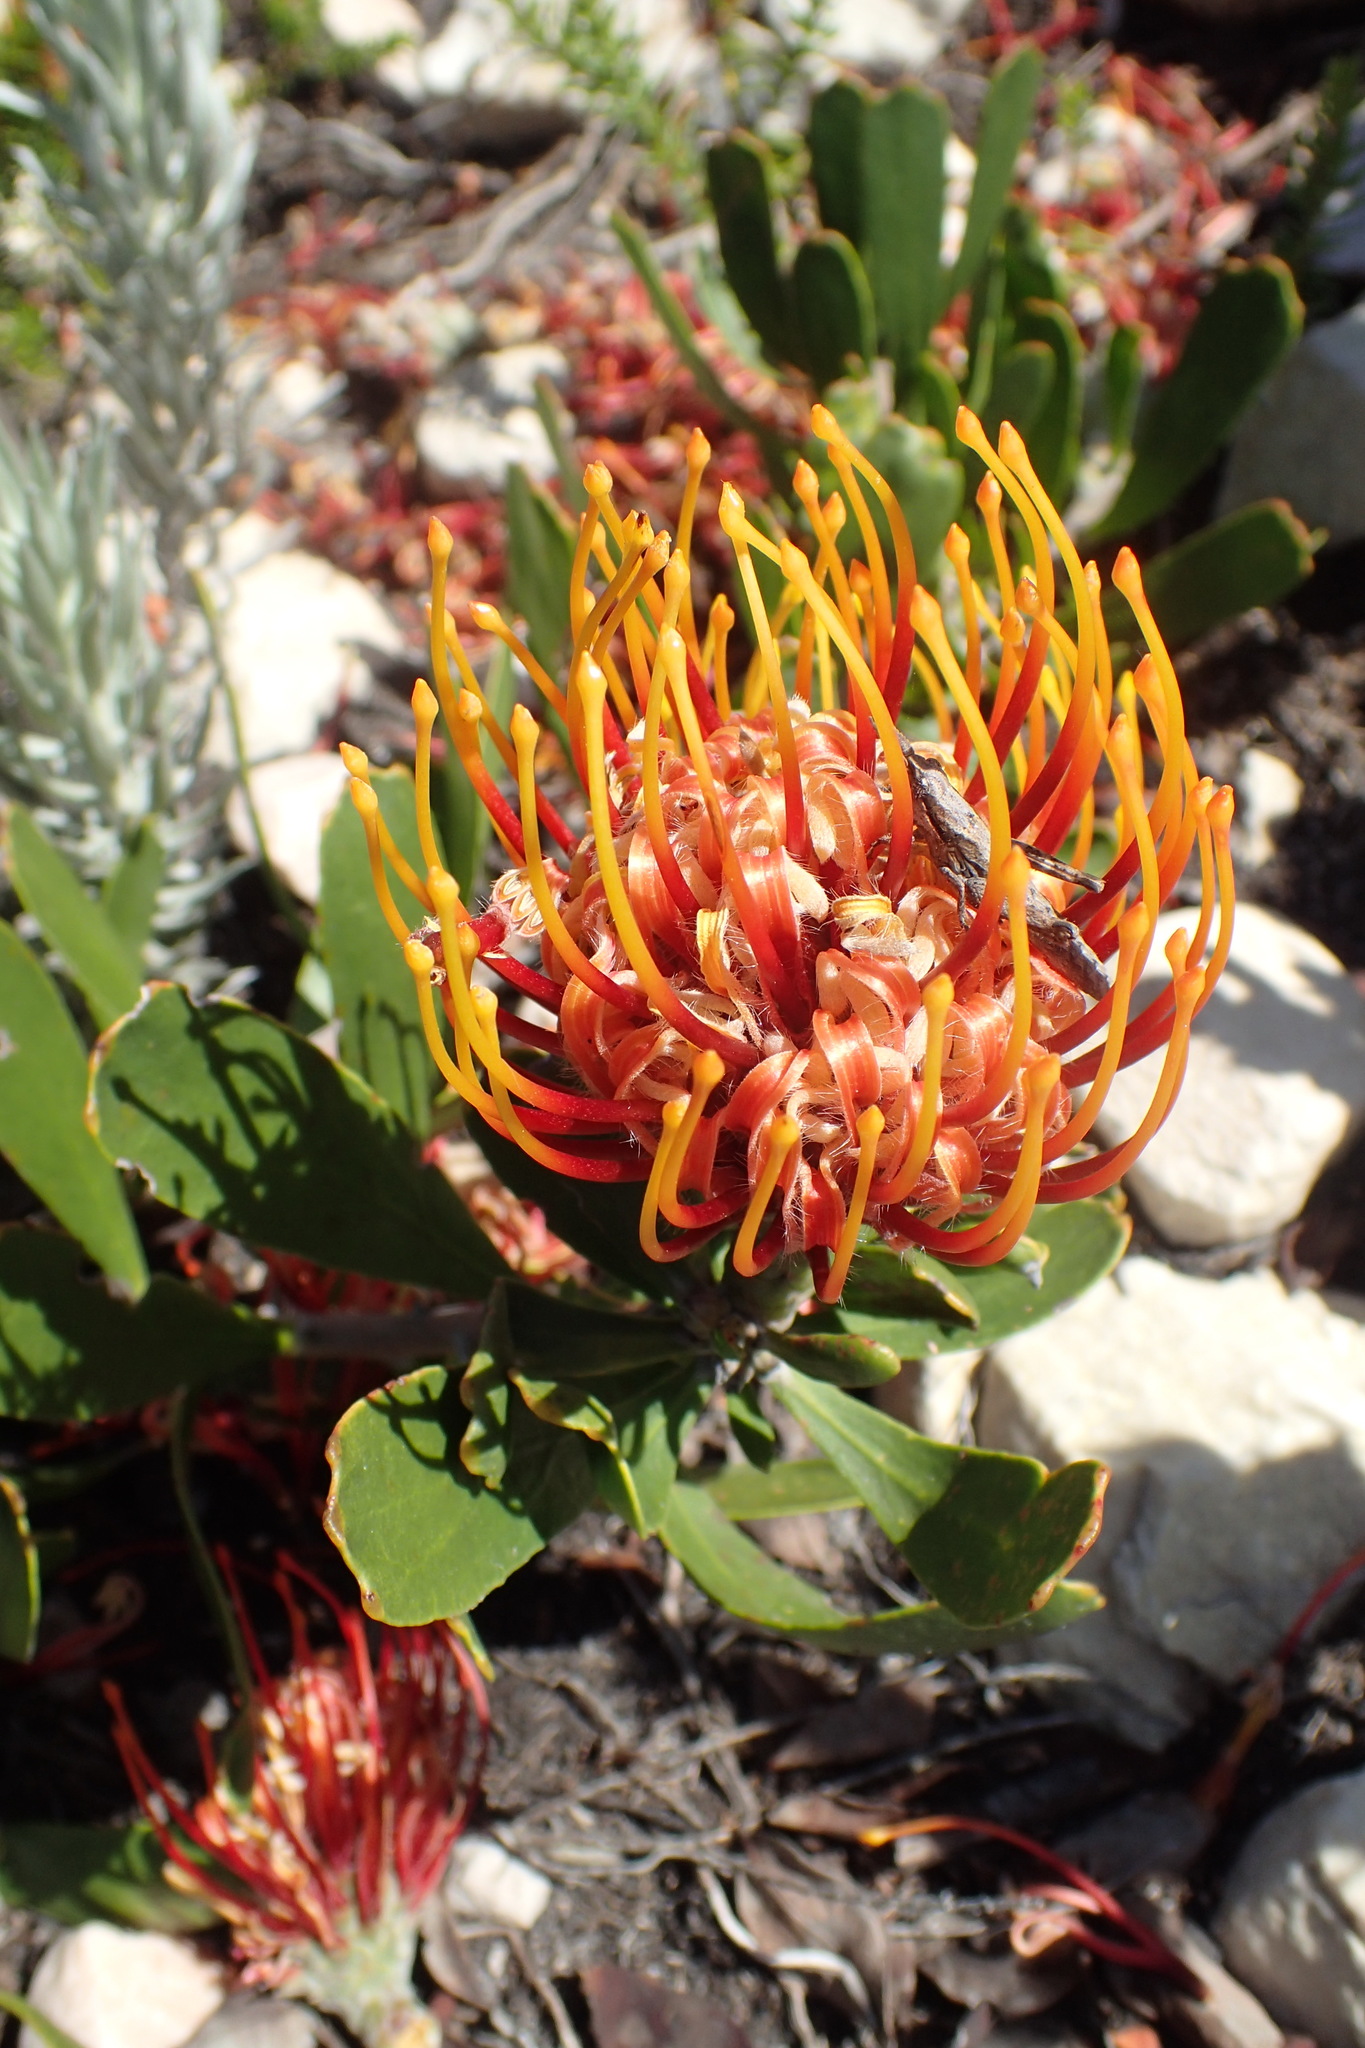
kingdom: Plantae
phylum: Tracheophyta
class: Magnoliopsida
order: Proteales
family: Proteaceae
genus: Leucospermum
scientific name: Leucospermum cuneiforme
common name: Common pincushion
